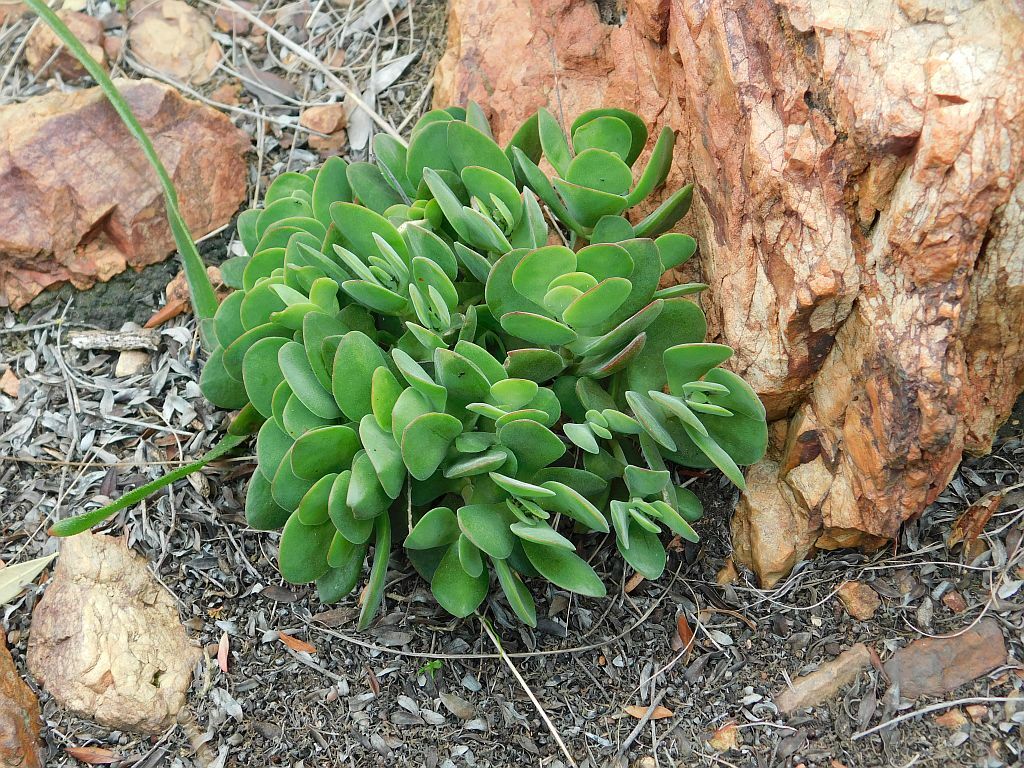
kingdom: Plantae
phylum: Tracheophyta
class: Magnoliopsida
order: Saxifragales
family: Crassulaceae
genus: Crassula
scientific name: Crassula atropurpurea
